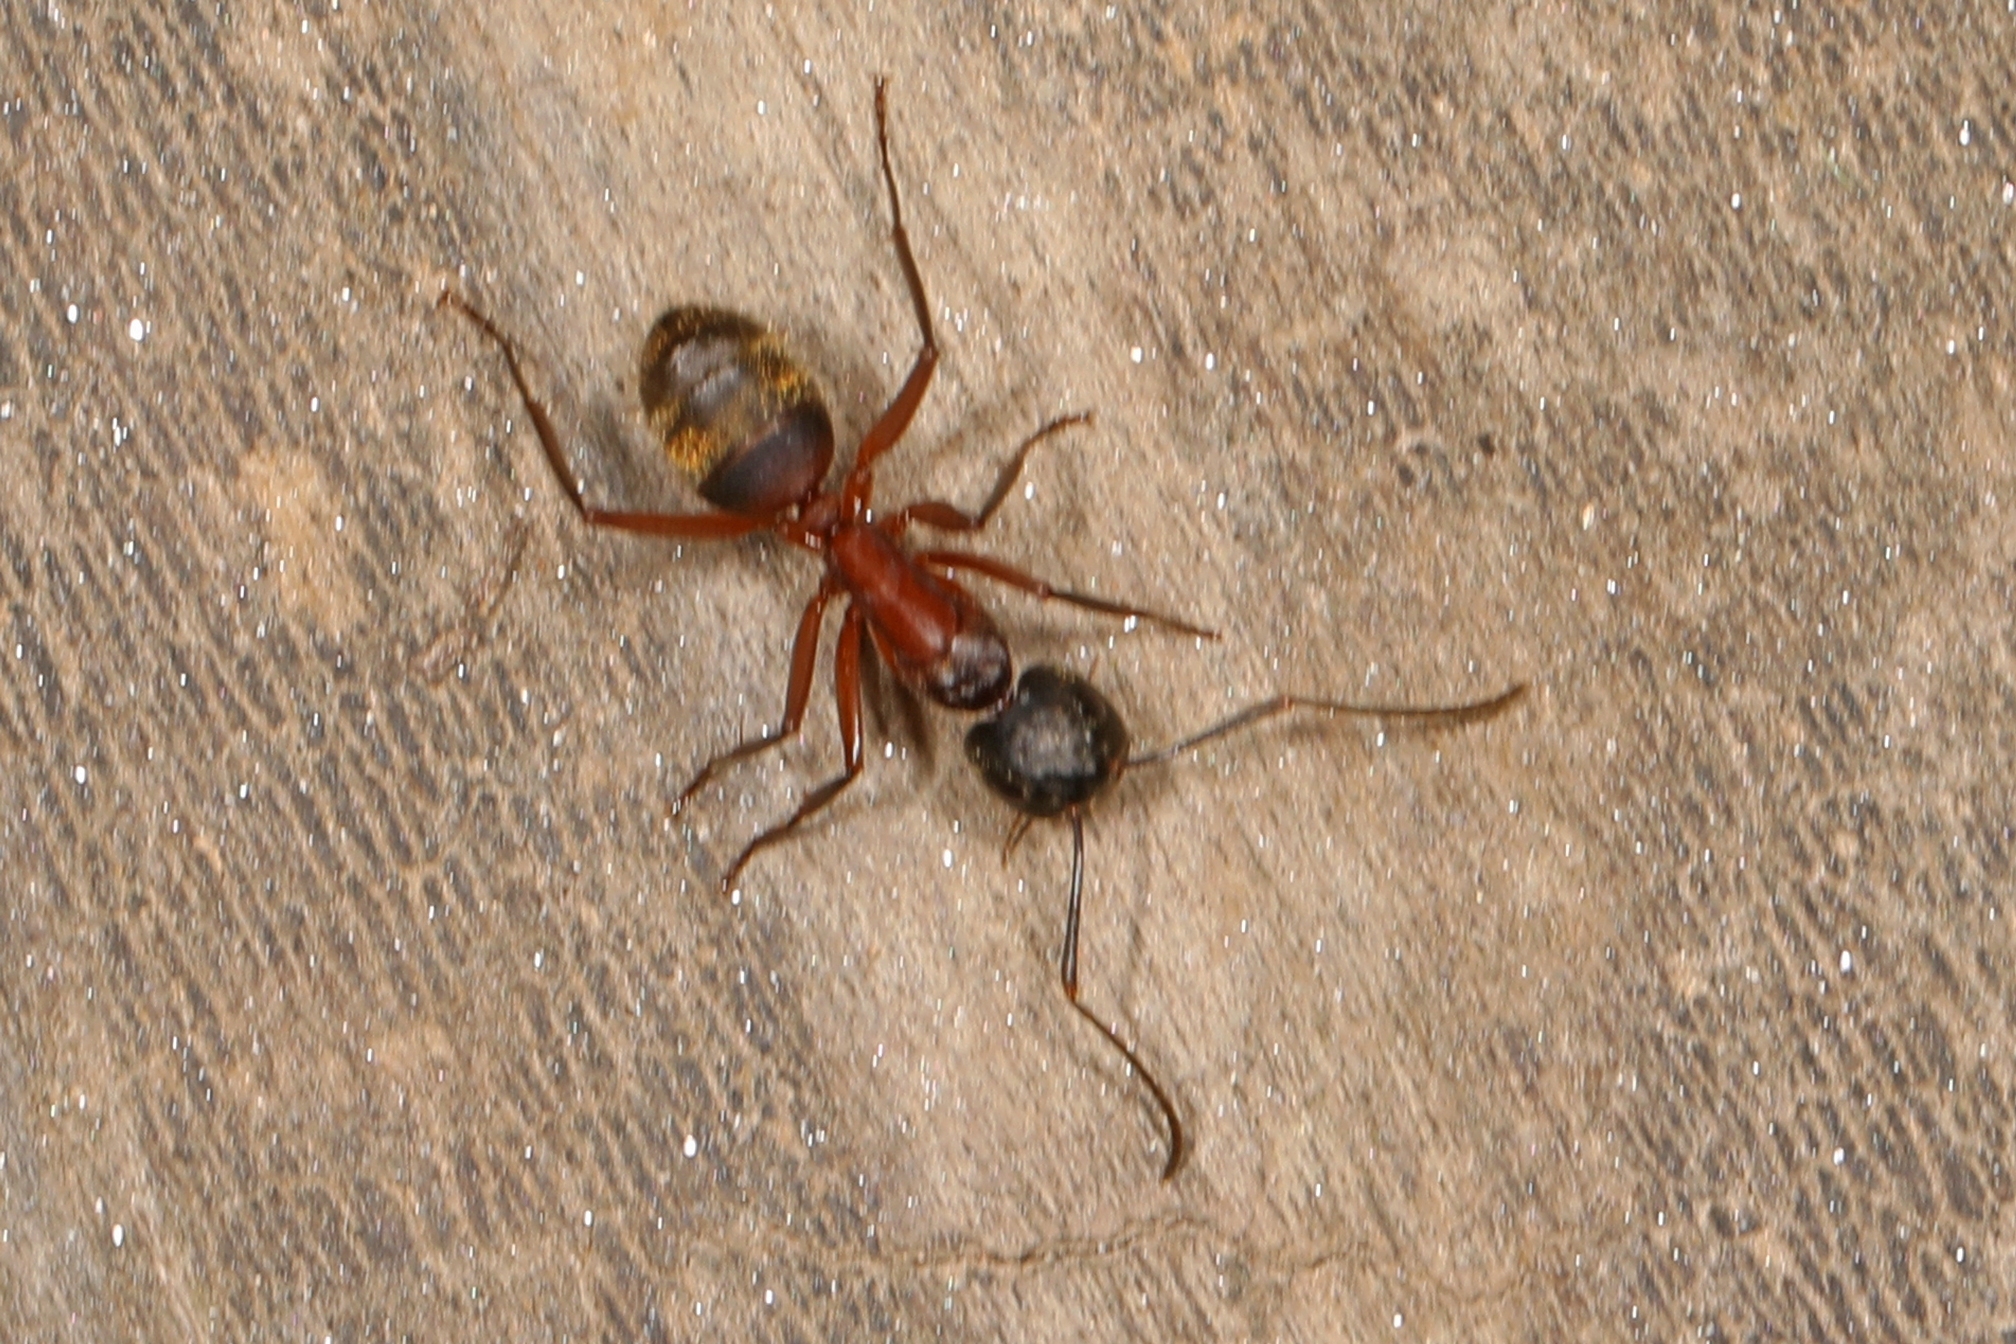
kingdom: Animalia
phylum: Arthropoda
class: Insecta
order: Hymenoptera
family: Formicidae
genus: Camponotus
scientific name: Camponotus chromaiodes
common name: Red carpenter ant
